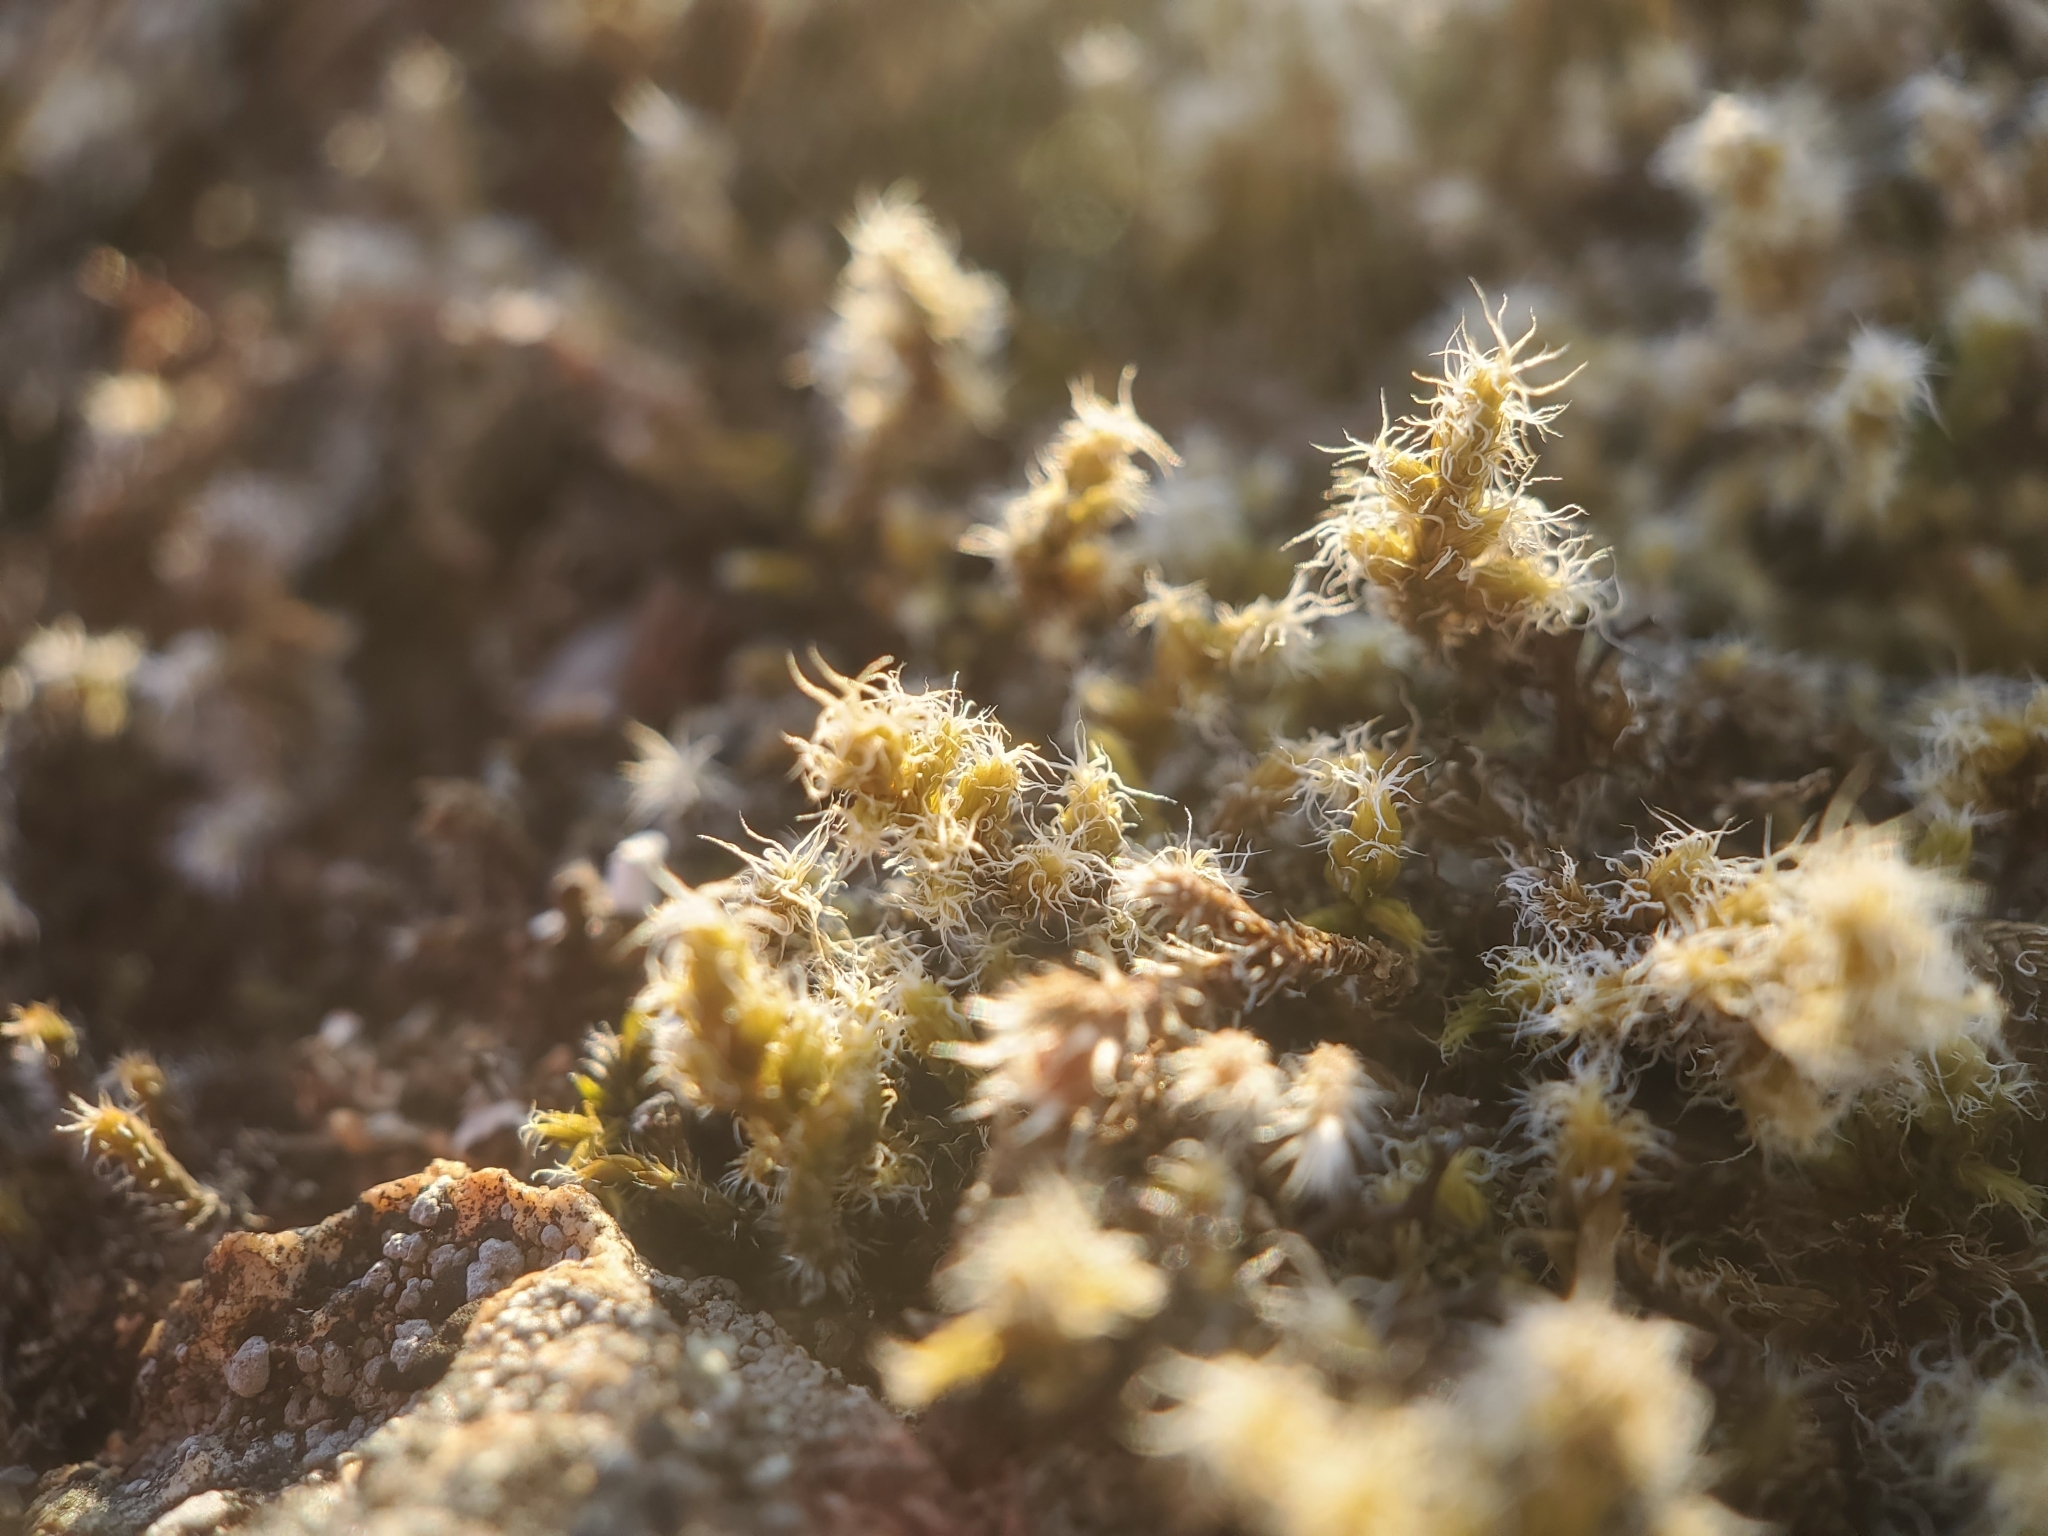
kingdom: Plantae
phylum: Bryophyta
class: Bryopsida
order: Grimmiales
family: Grimmiaceae
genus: Racomitrium
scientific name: Racomitrium lanuginosum
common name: Hoary rock moss
